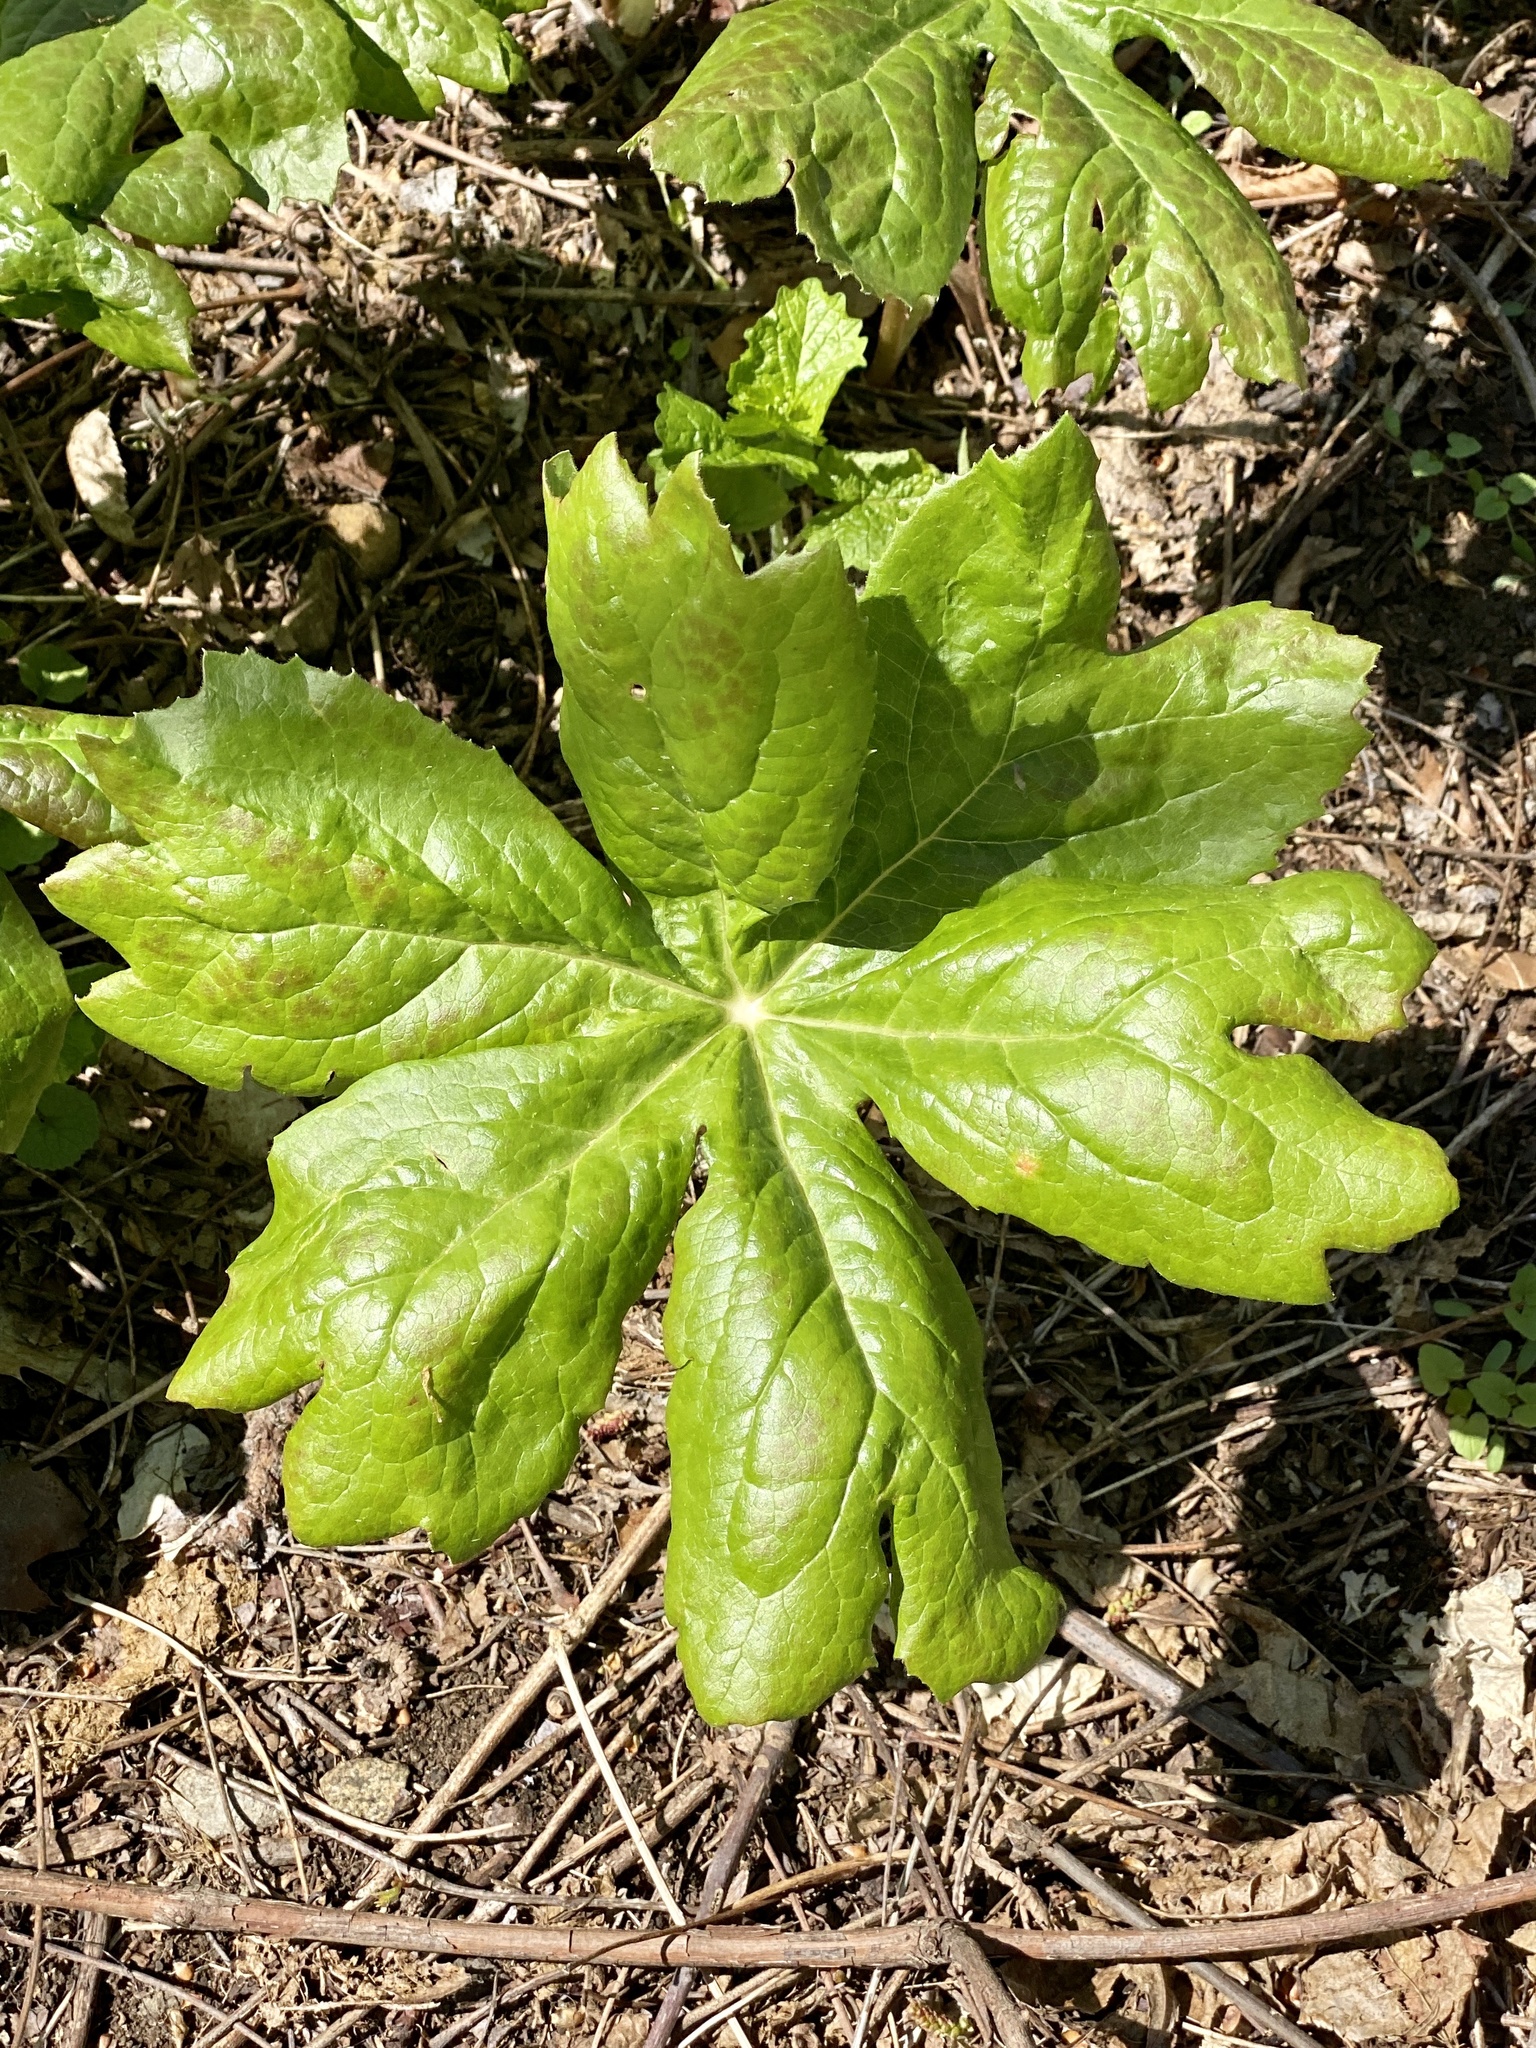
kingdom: Plantae
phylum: Tracheophyta
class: Magnoliopsida
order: Ranunculales
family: Berberidaceae
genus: Podophyllum
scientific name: Podophyllum peltatum
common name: Wild mandrake
